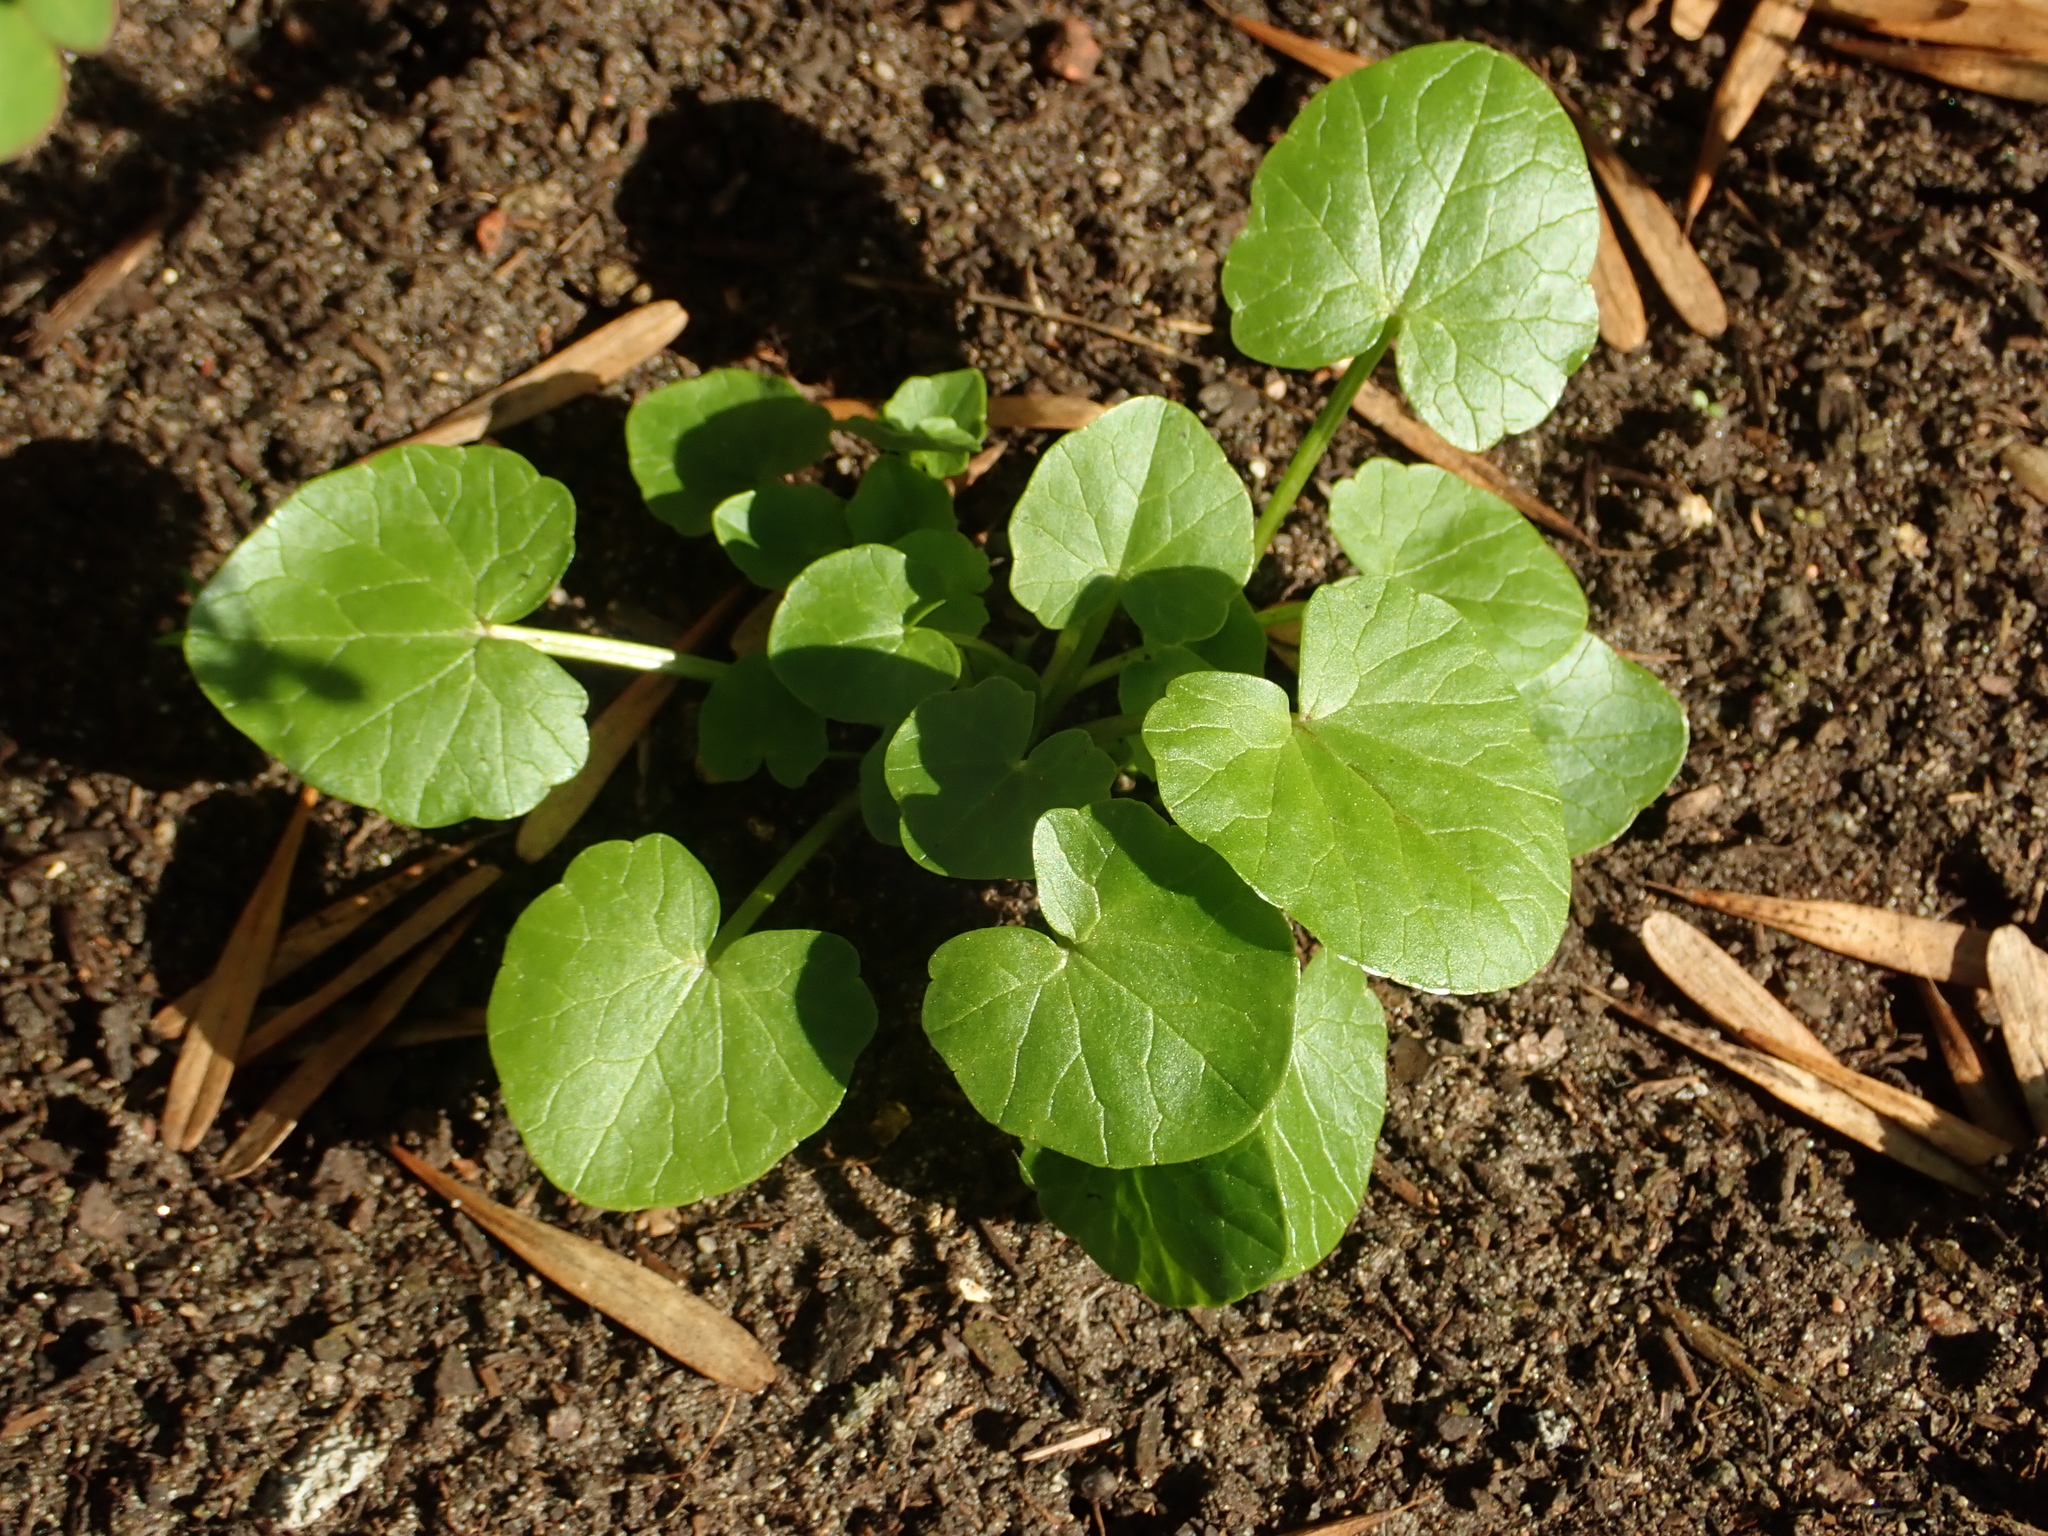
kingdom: Plantae
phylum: Tracheophyta
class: Magnoliopsida
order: Ranunculales
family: Ranunculaceae
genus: Ficaria
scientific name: Ficaria verna
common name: Lesser celandine
